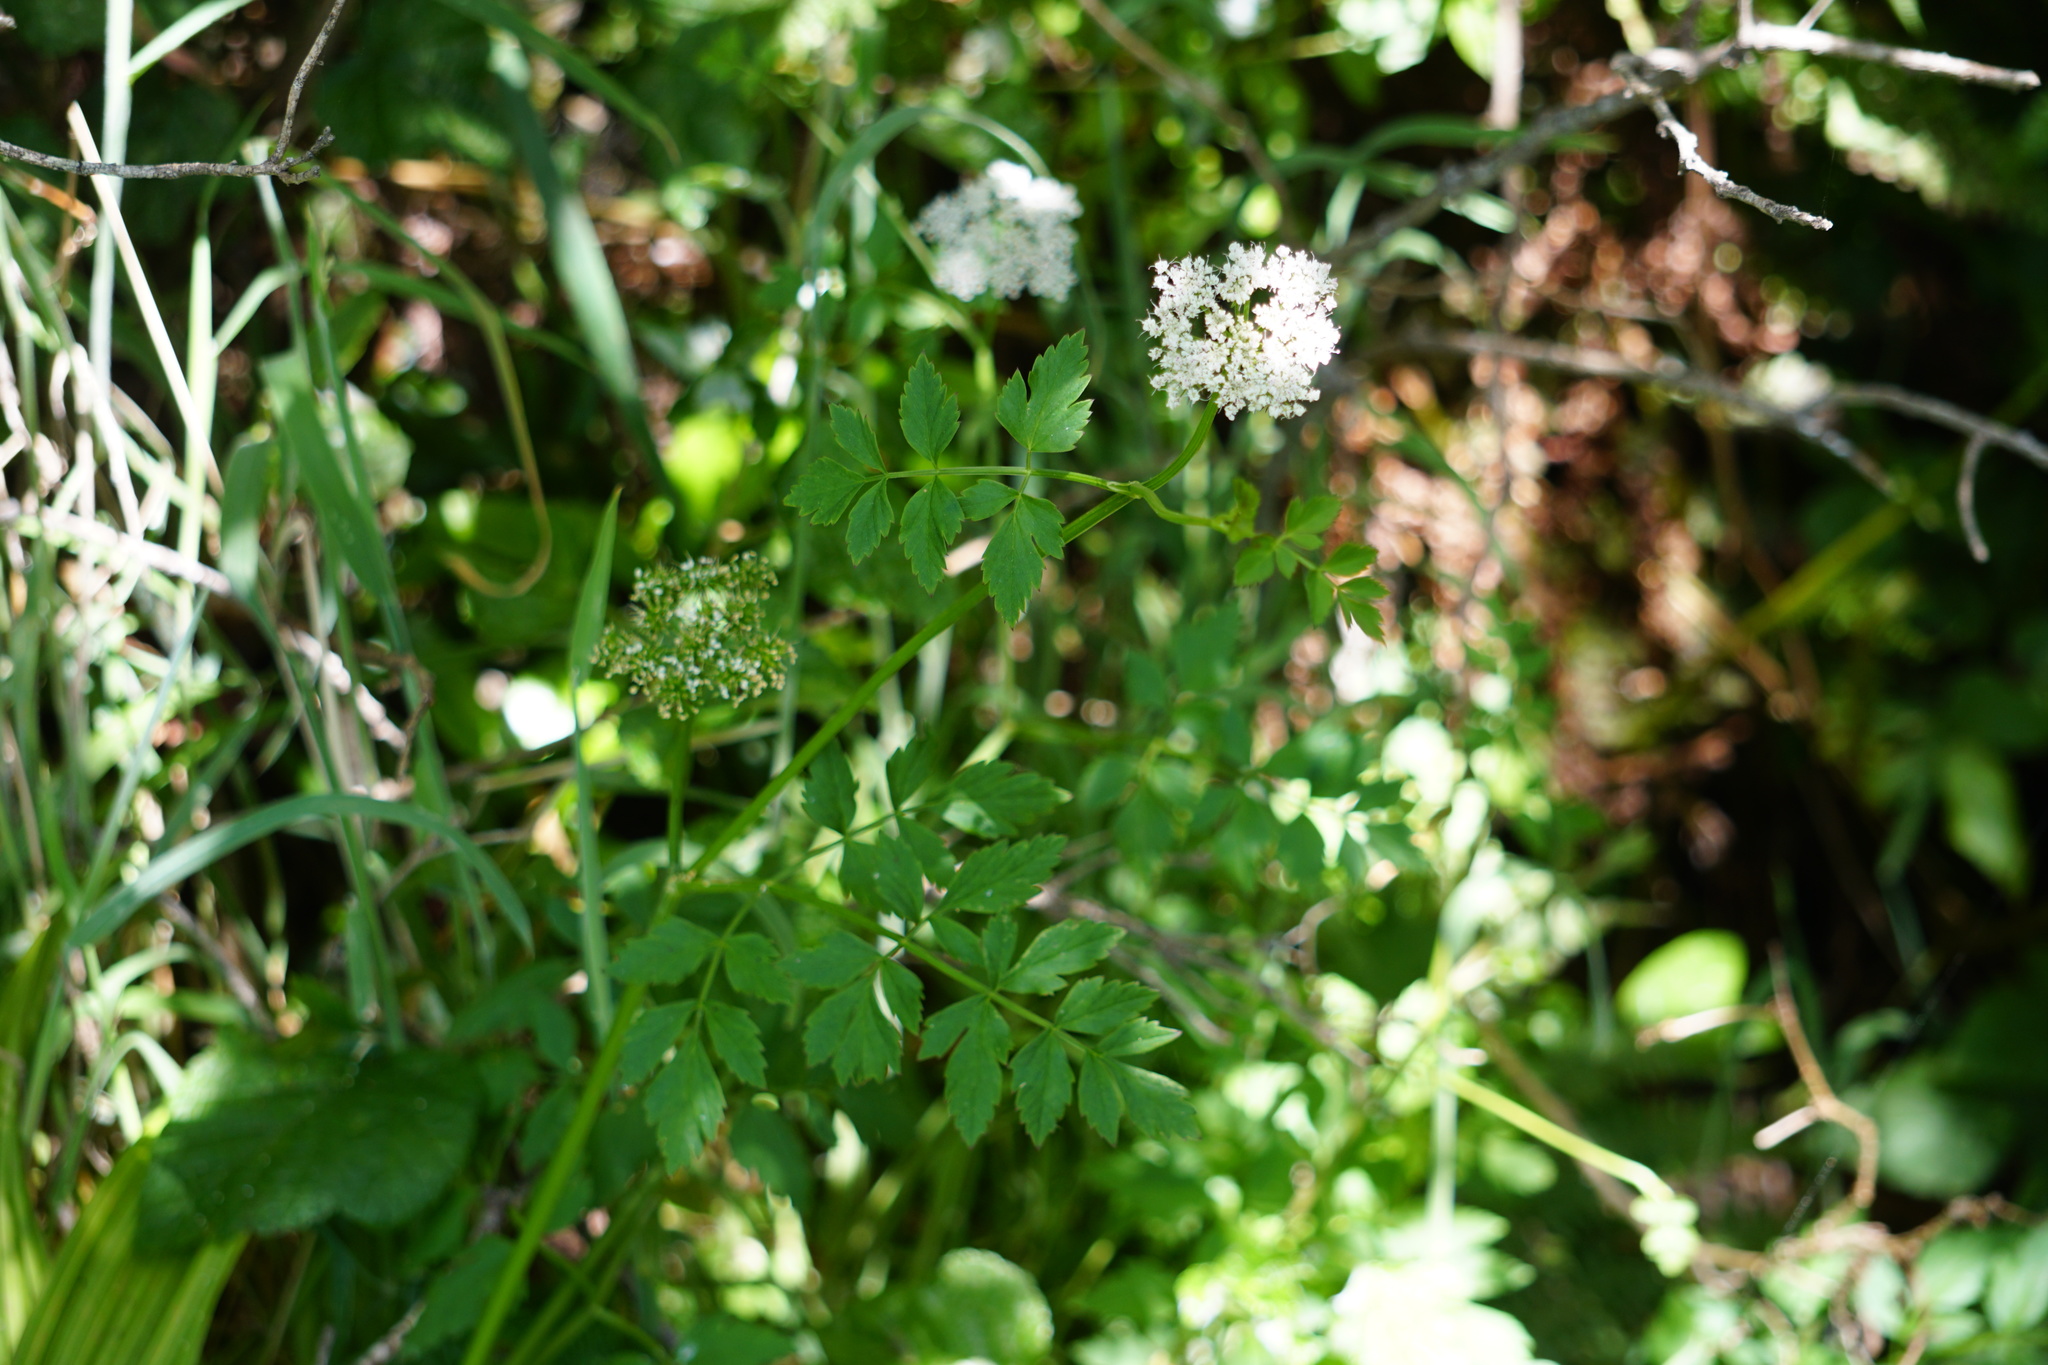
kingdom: Plantae
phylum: Tracheophyta
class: Magnoliopsida
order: Apiales
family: Apiaceae
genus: Oenanthe
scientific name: Oenanthe sarmentosa
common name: American water-parsley
